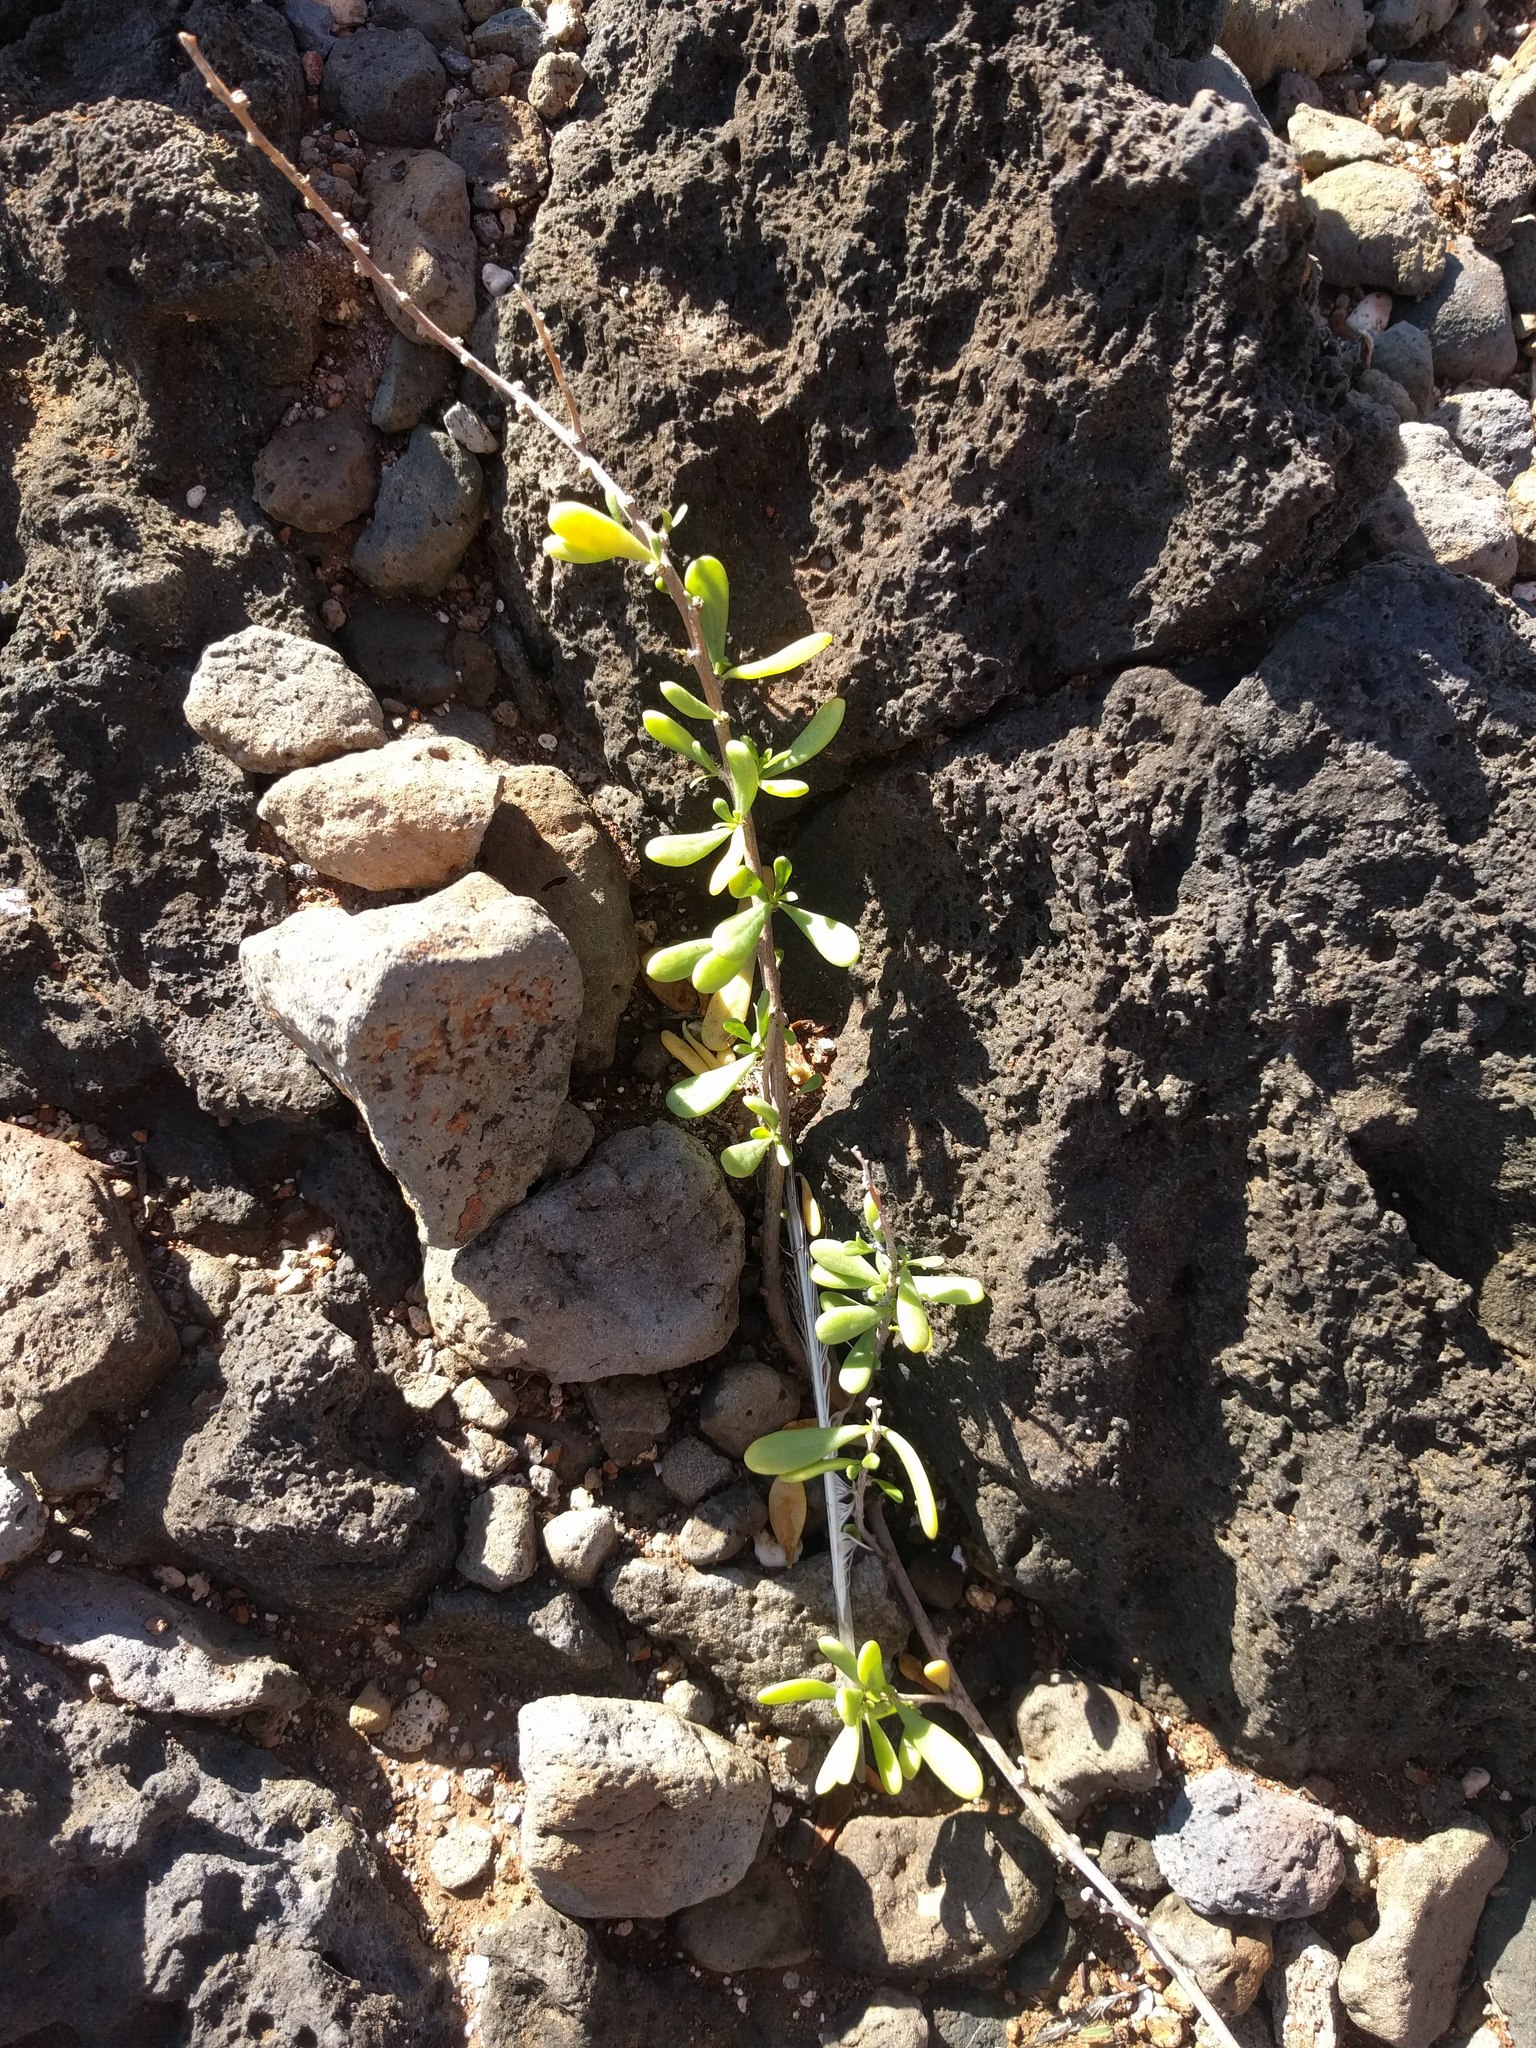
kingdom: Plantae
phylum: Tracheophyta
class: Magnoliopsida
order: Solanales
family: Solanaceae
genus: Lycium
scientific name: Lycium sandwicense
